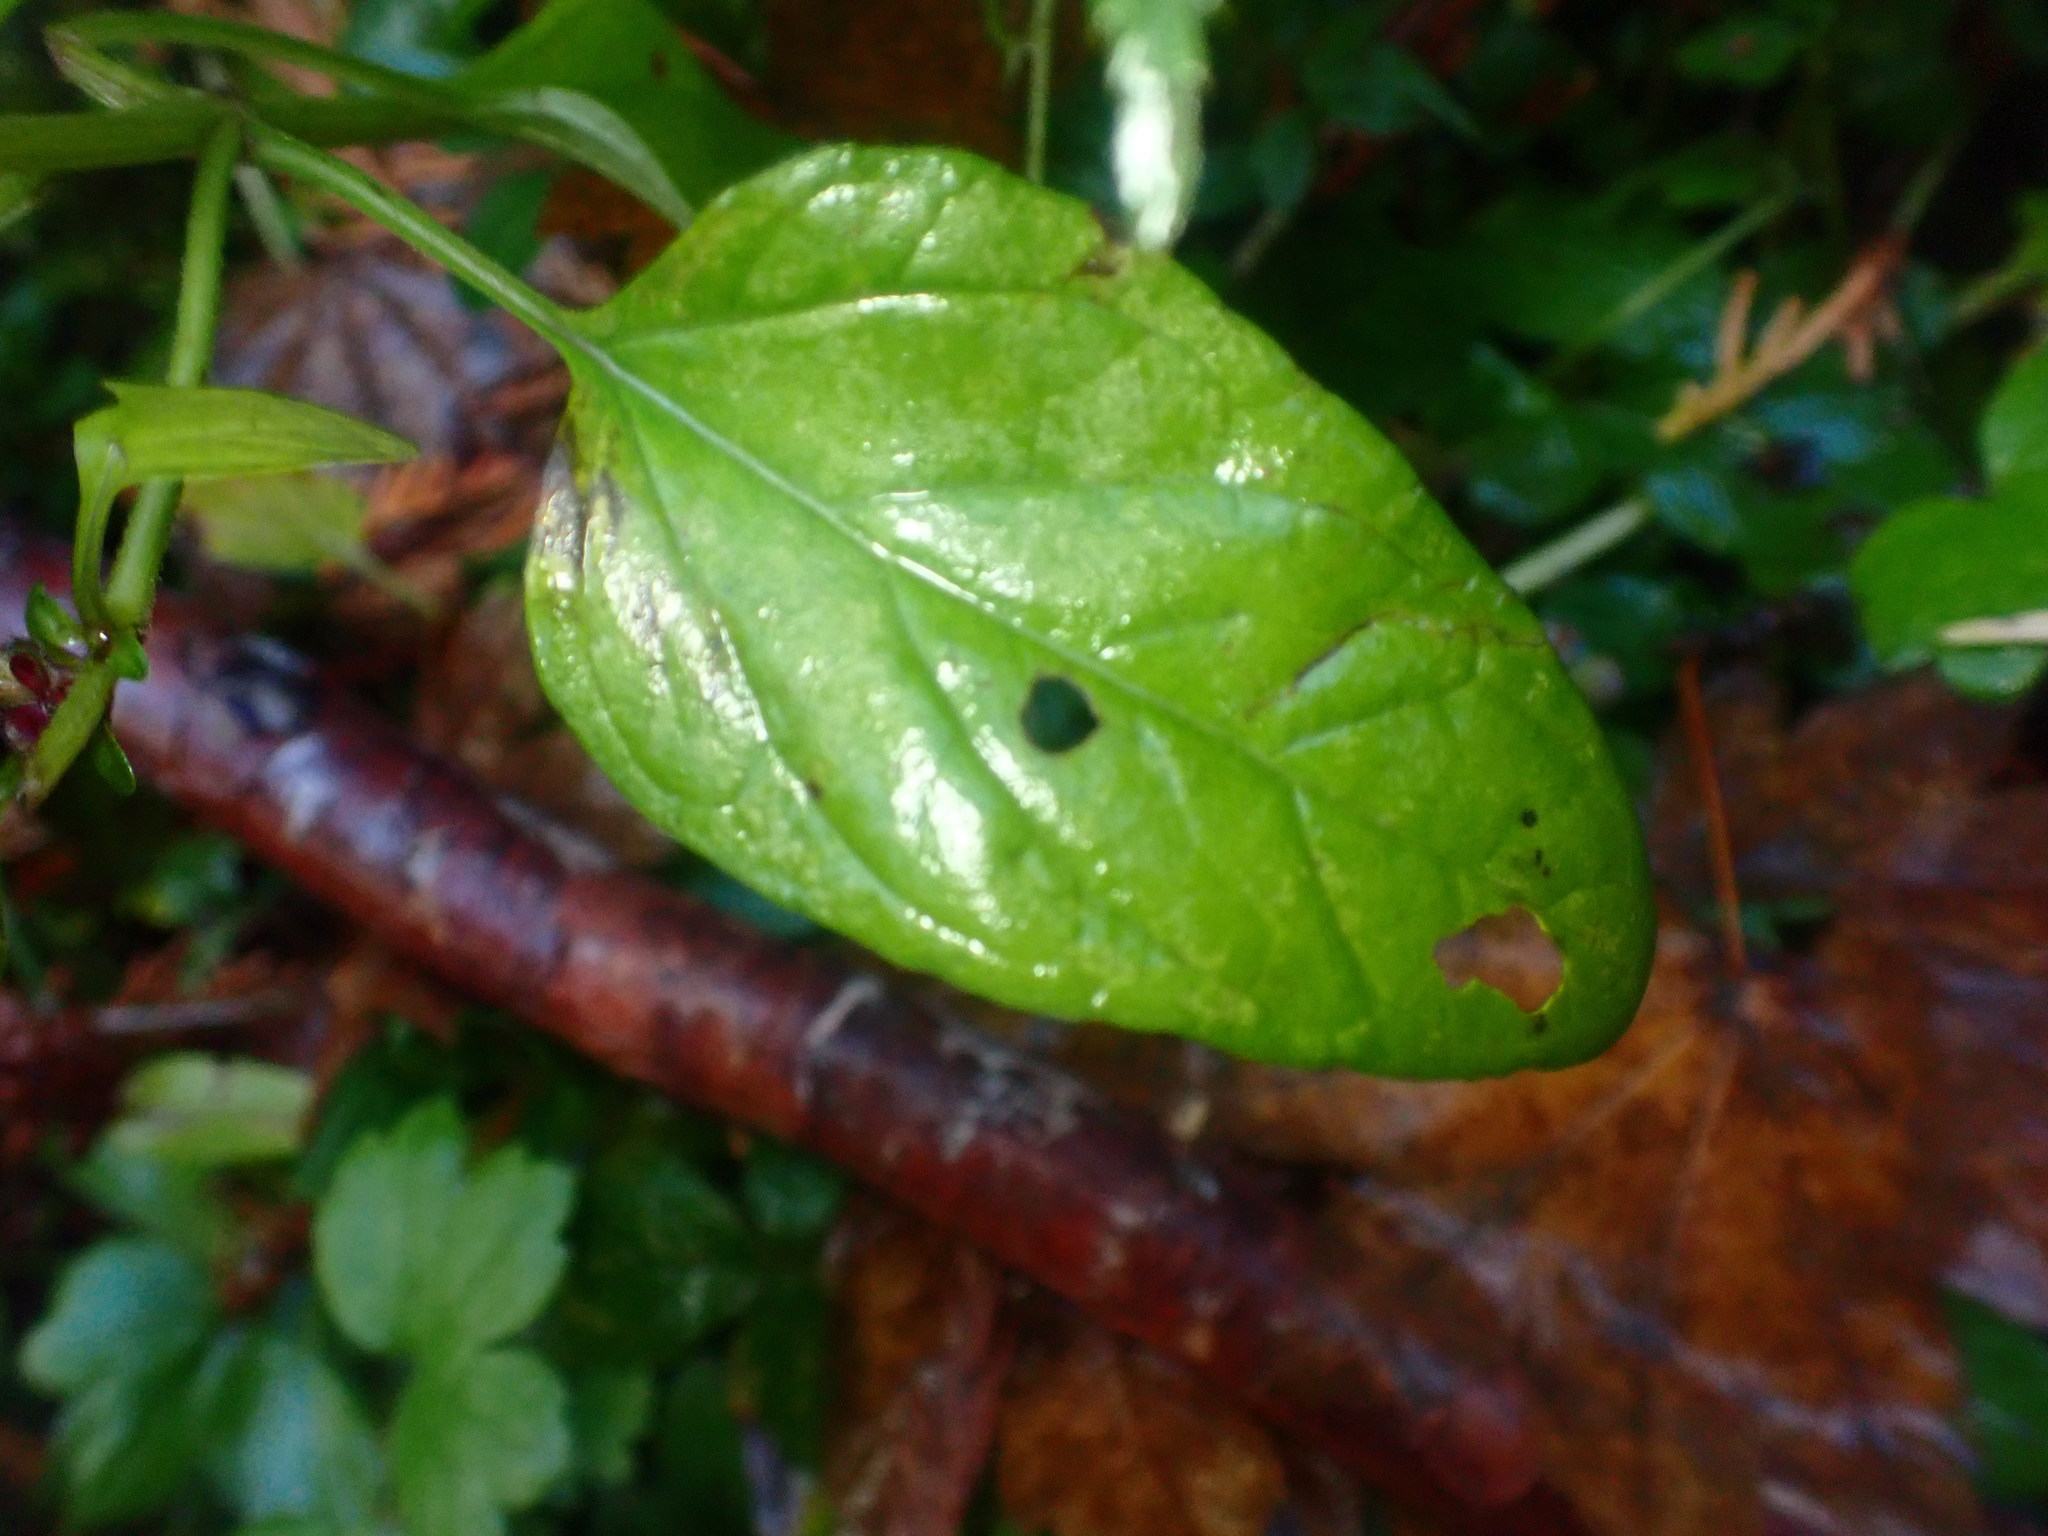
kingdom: Plantae
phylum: Tracheophyta
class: Magnoliopsida
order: Lamiales
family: Lamiaceae
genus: Prunella
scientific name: Prunella vulgaris
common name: Heal-all
